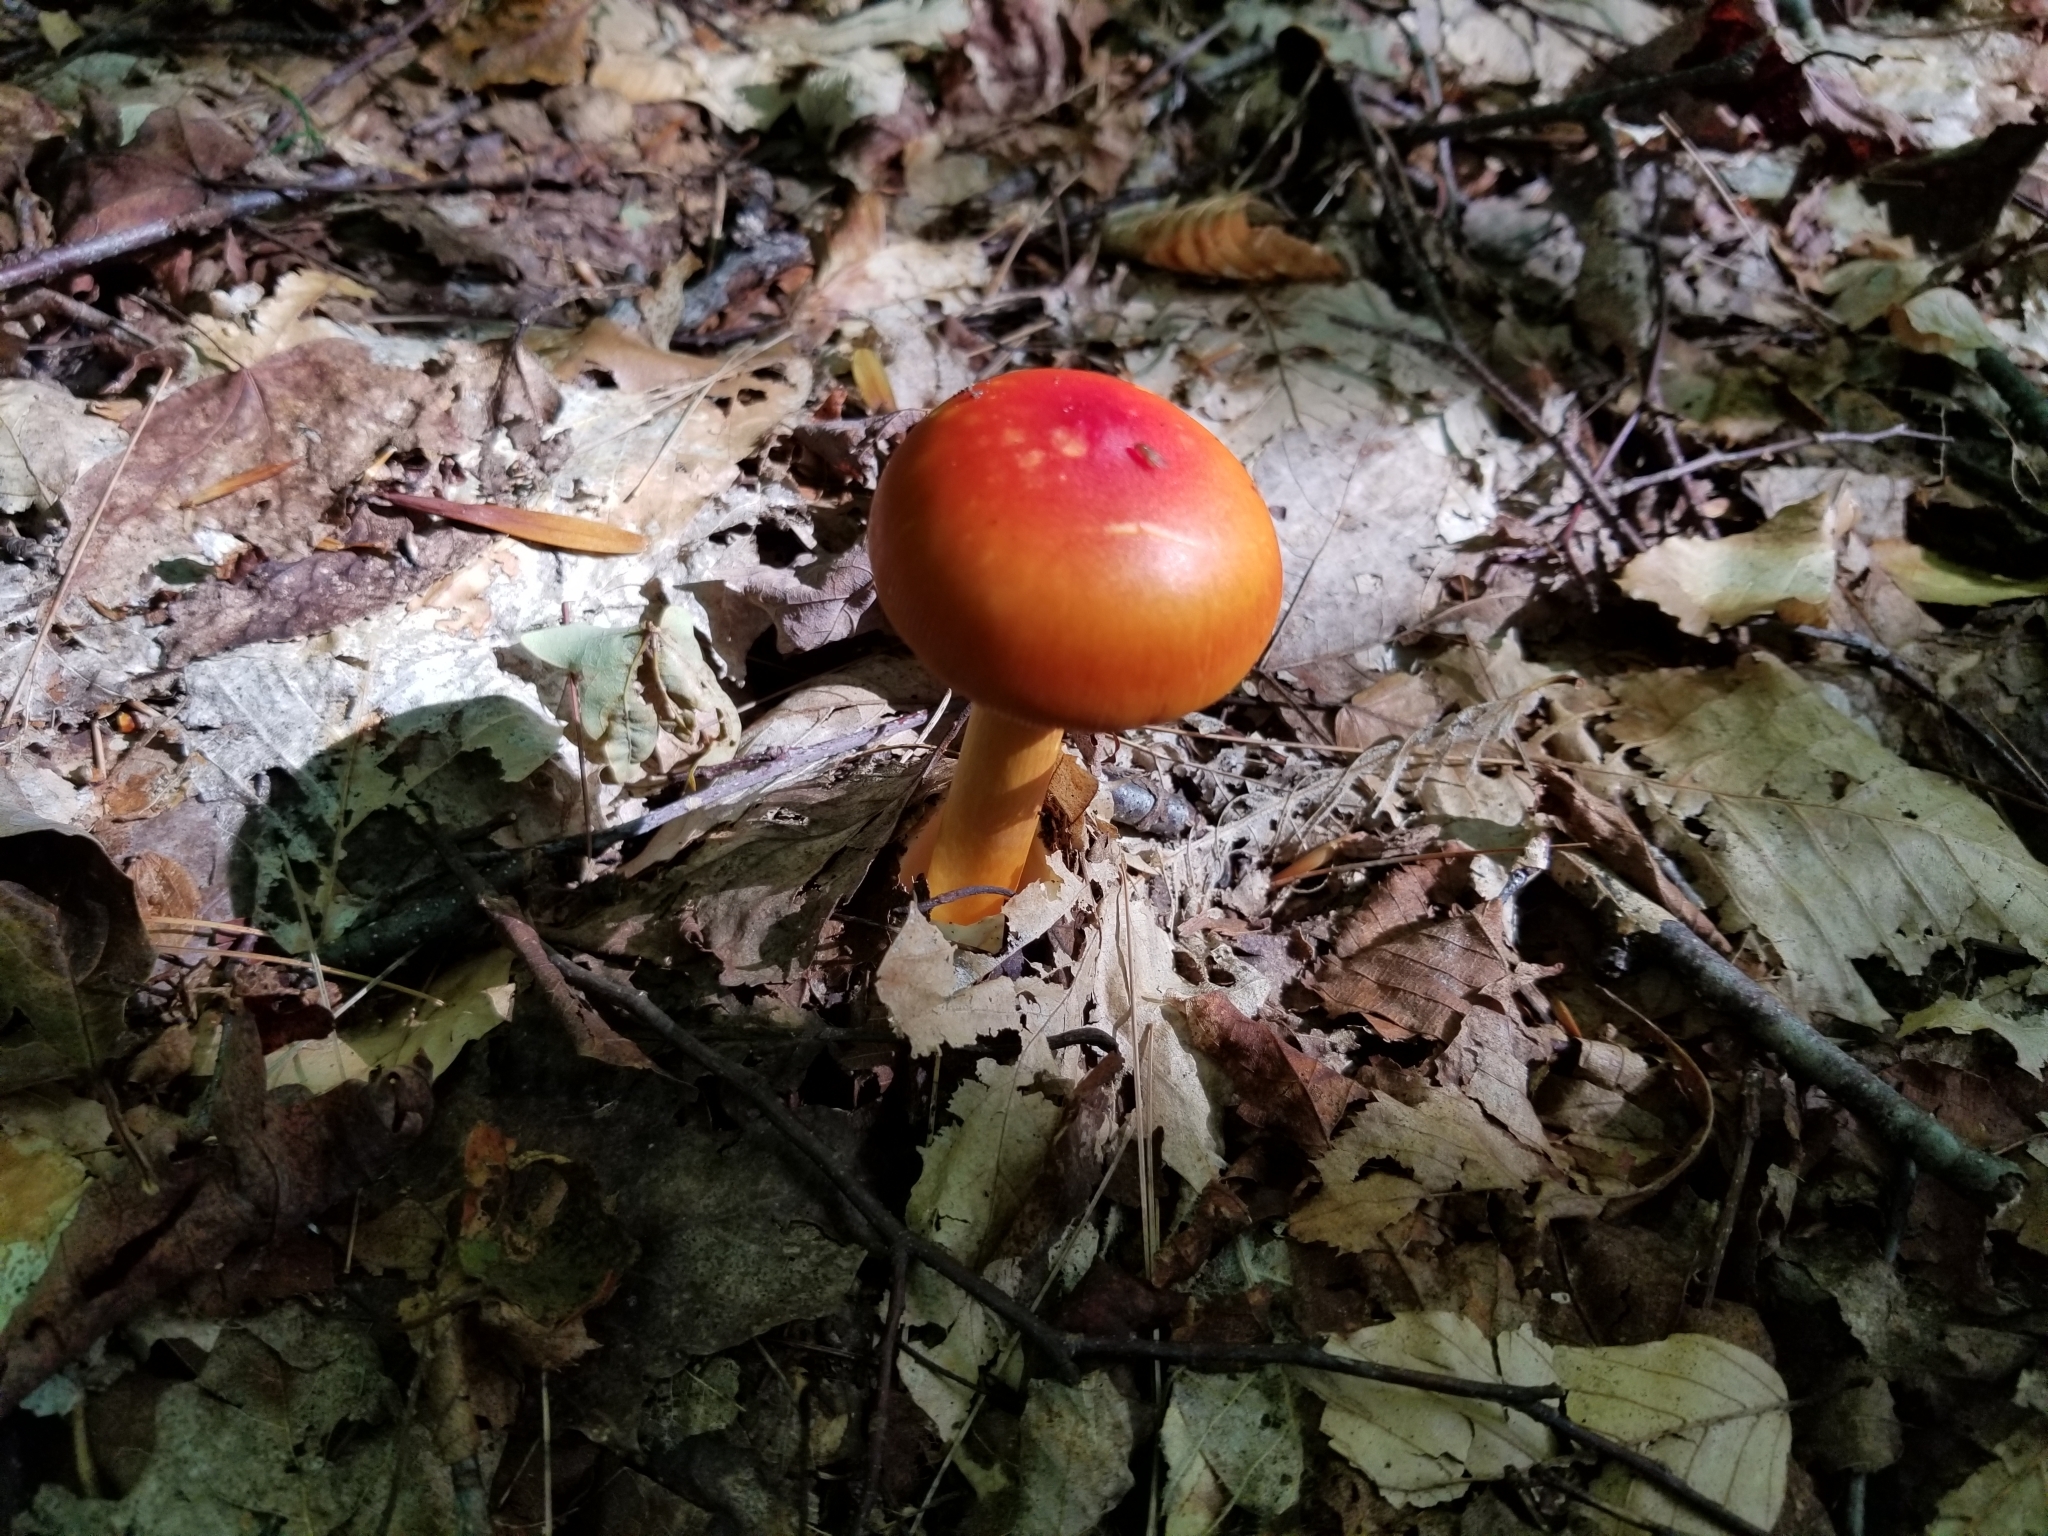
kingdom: Fungi
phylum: Basidiomycota
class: Agaricomycetes
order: Agaricales
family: Amanitaceae
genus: Amanita
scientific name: Amanita jacksonii
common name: Jackson's slender caesar
